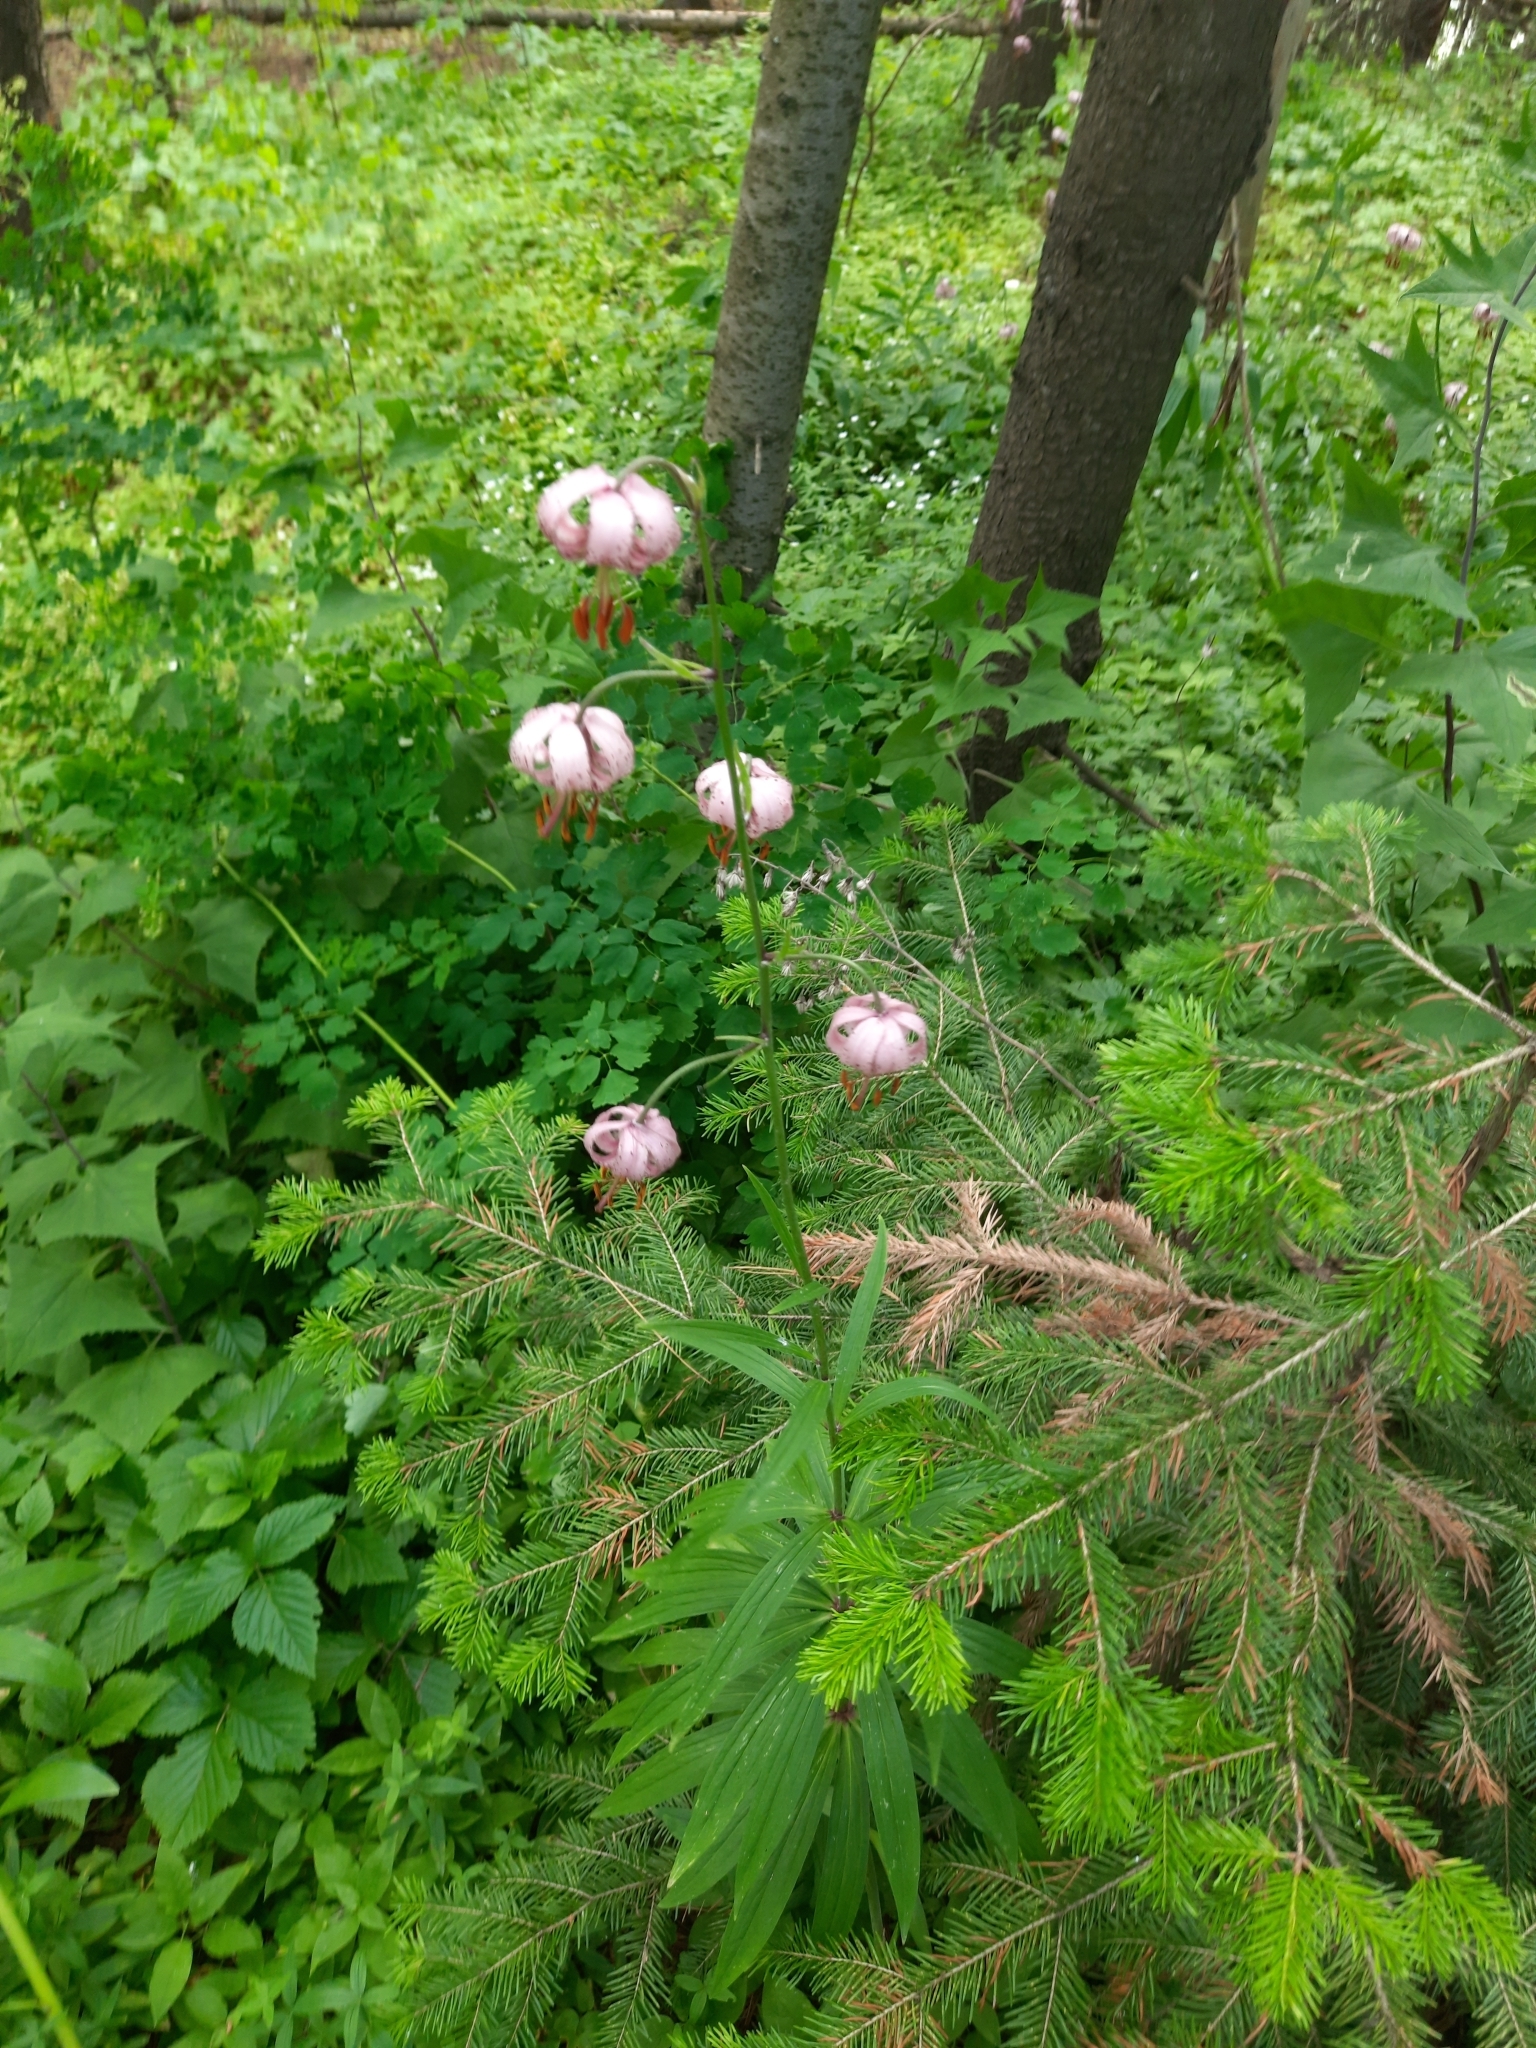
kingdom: Plantae
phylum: Tracheophyta
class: Liliopsida
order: Liliales
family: Liliaceae
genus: Lilium
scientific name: Lilium martagon
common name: Martagon lily
